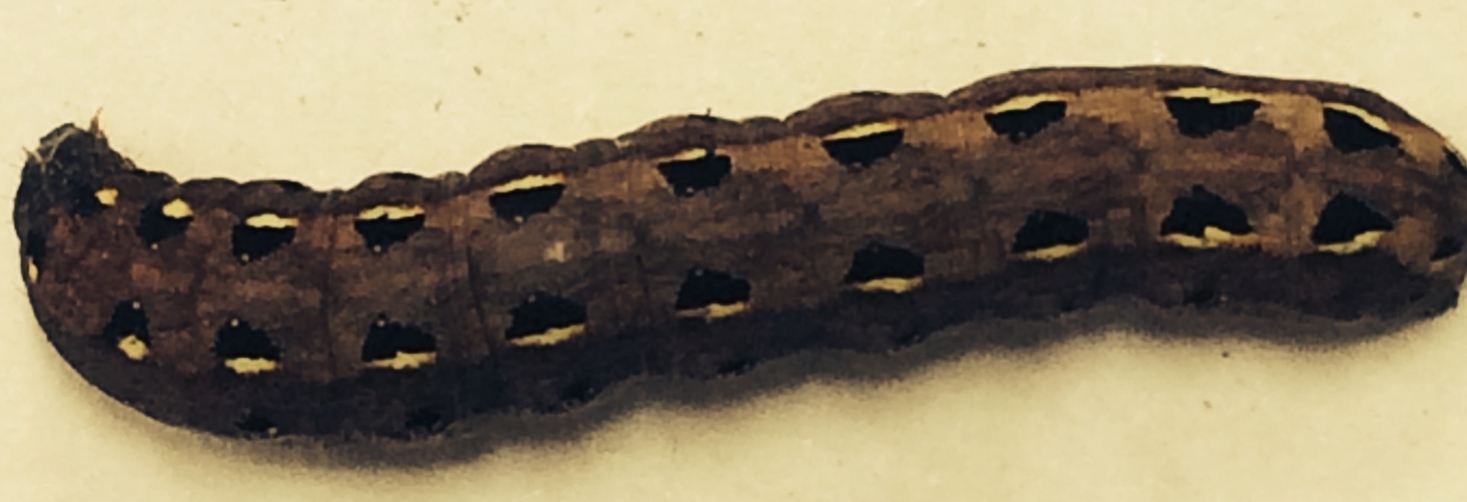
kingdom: Animalia
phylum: Arthropoda
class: Insecta
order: Lepidoptera
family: Noctuidae
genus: Spodoptera
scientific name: Spodoptera litura
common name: Asian cotton leafworm
